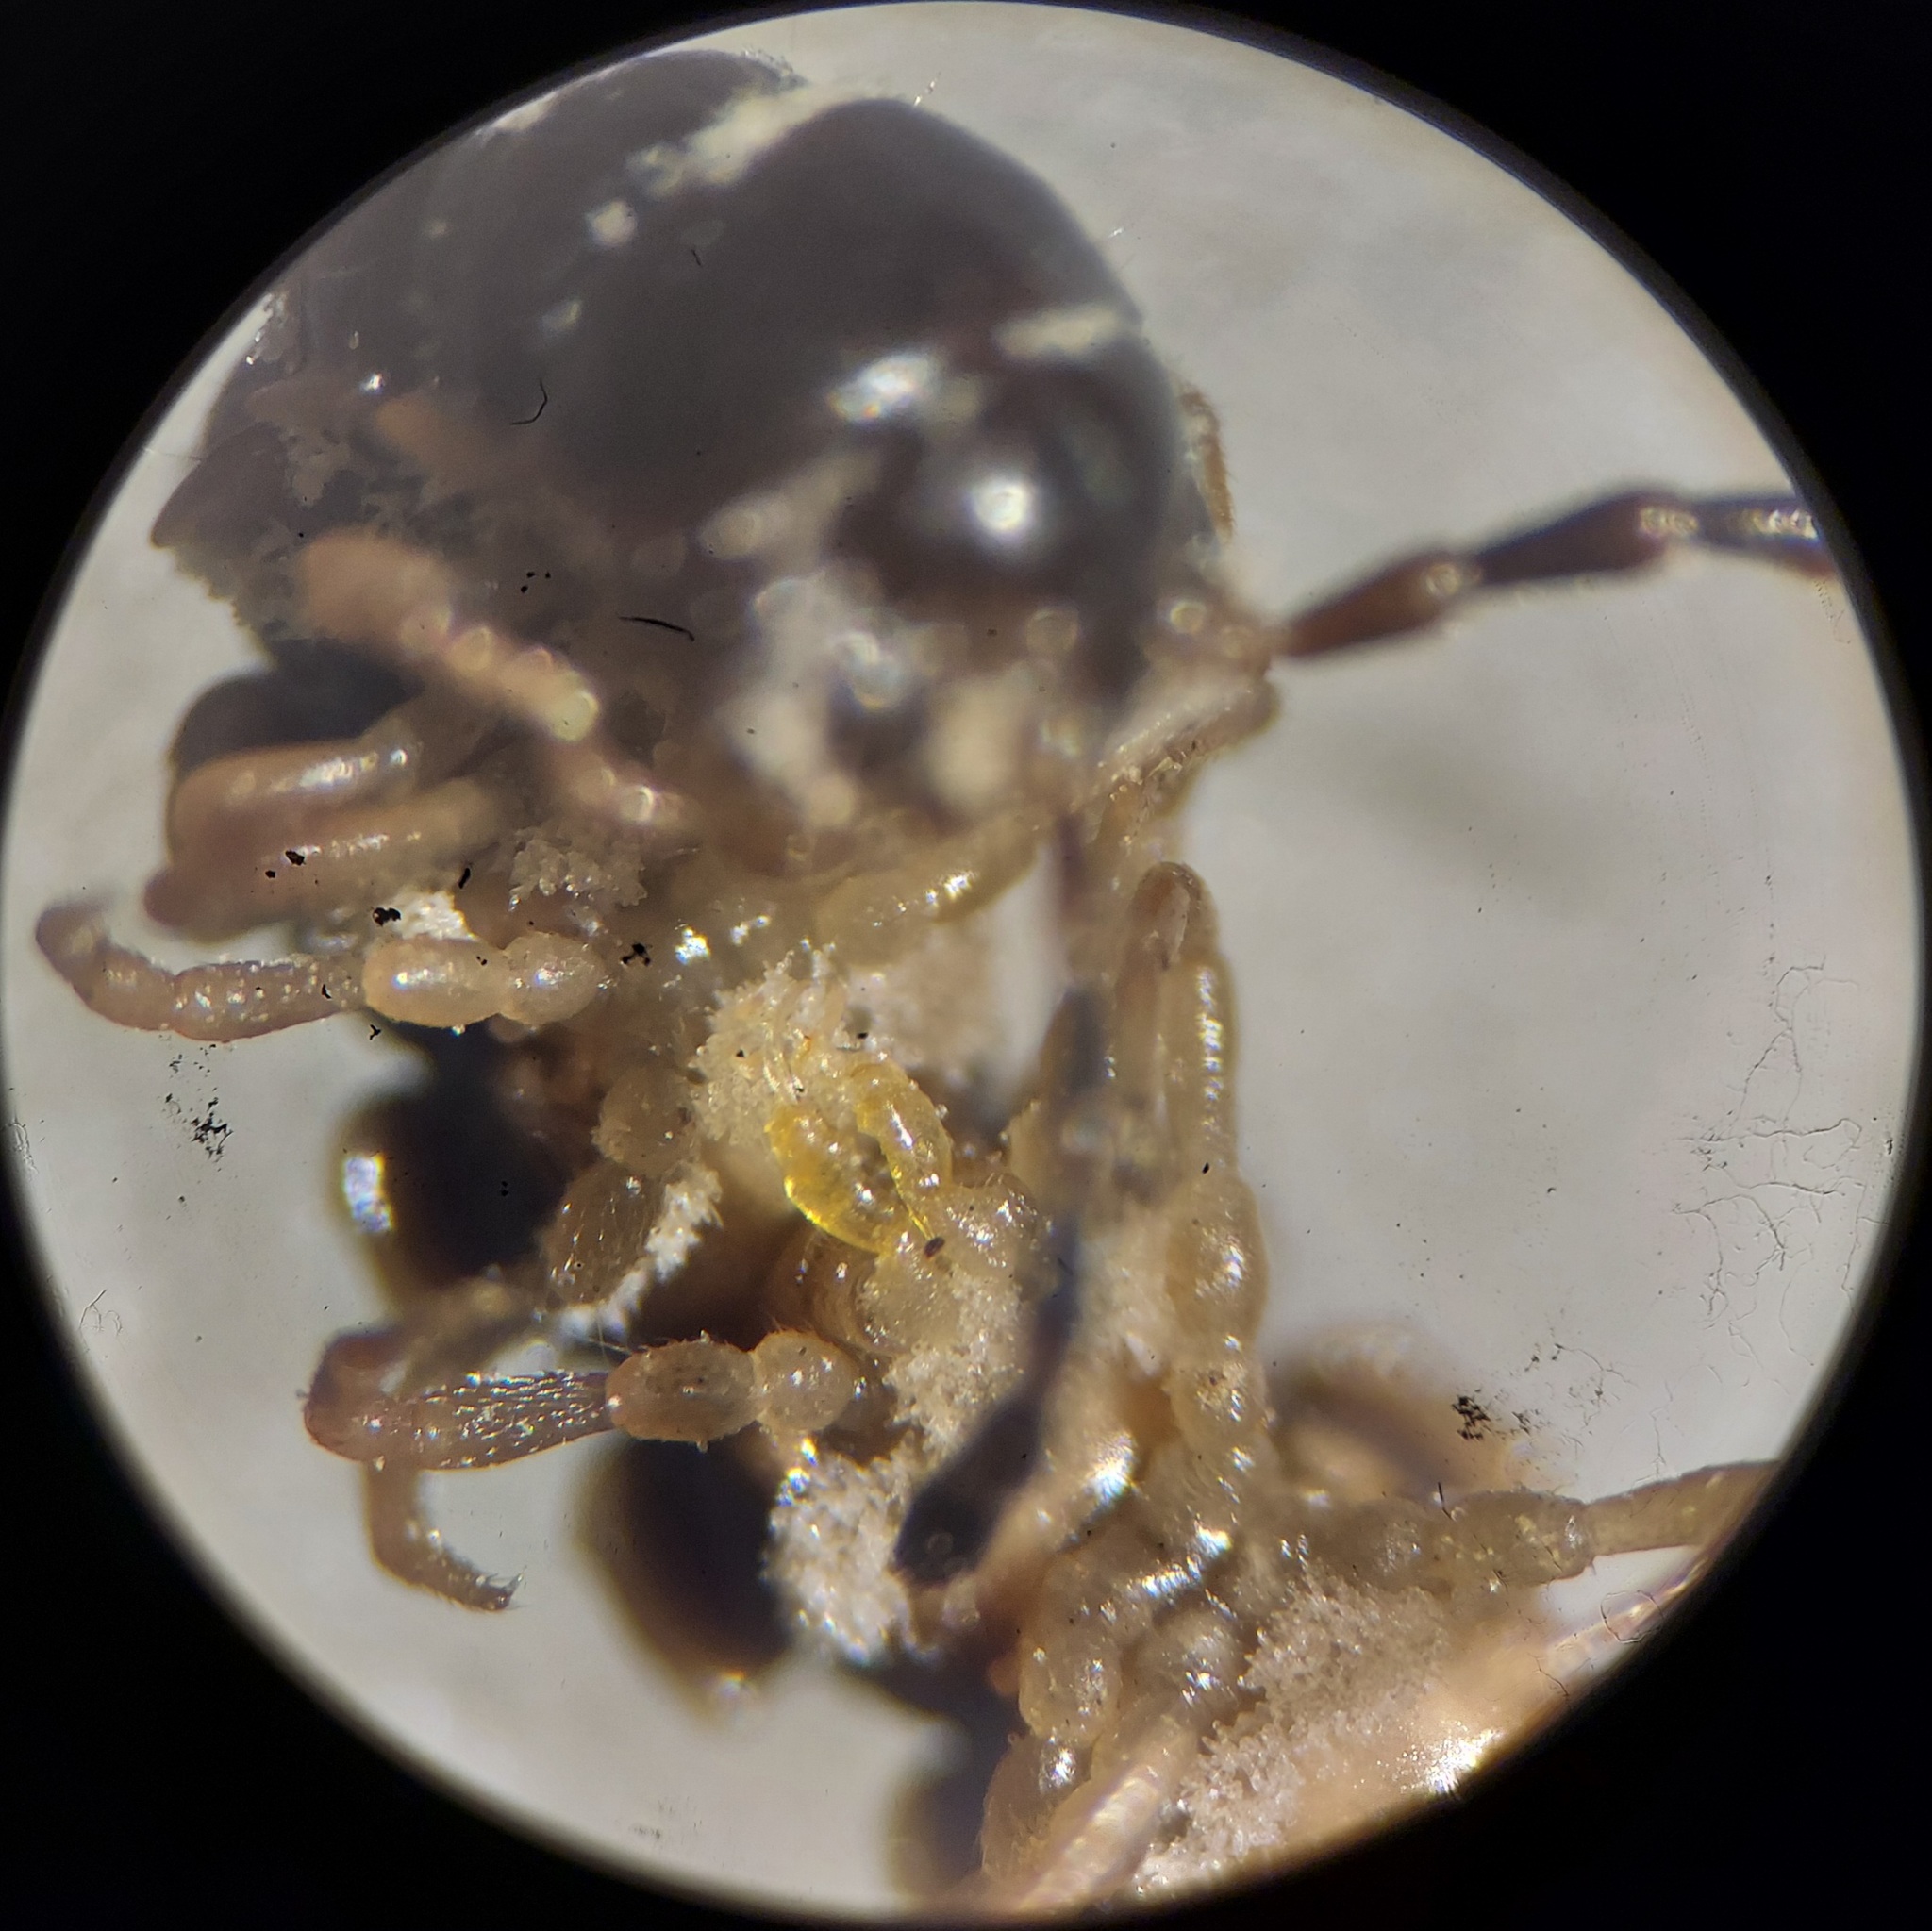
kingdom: Fungi
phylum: Entomophthoromycota
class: Entomophthoromycetes
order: Entomophthorales
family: Entomophthoraceae
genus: Arthrophaga
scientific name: Arthrophaga myriapodina
